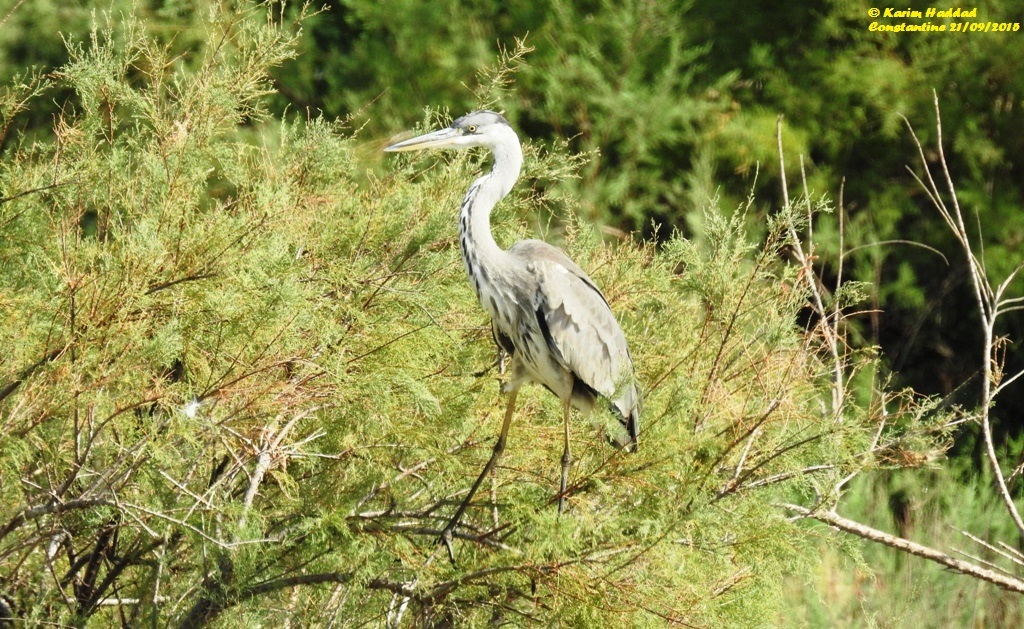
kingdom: Animalia
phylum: Chordata
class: Aves
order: Pelecaniformes
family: Ardeidae
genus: Ardea
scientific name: Ardea cinerea
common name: Grey heron
